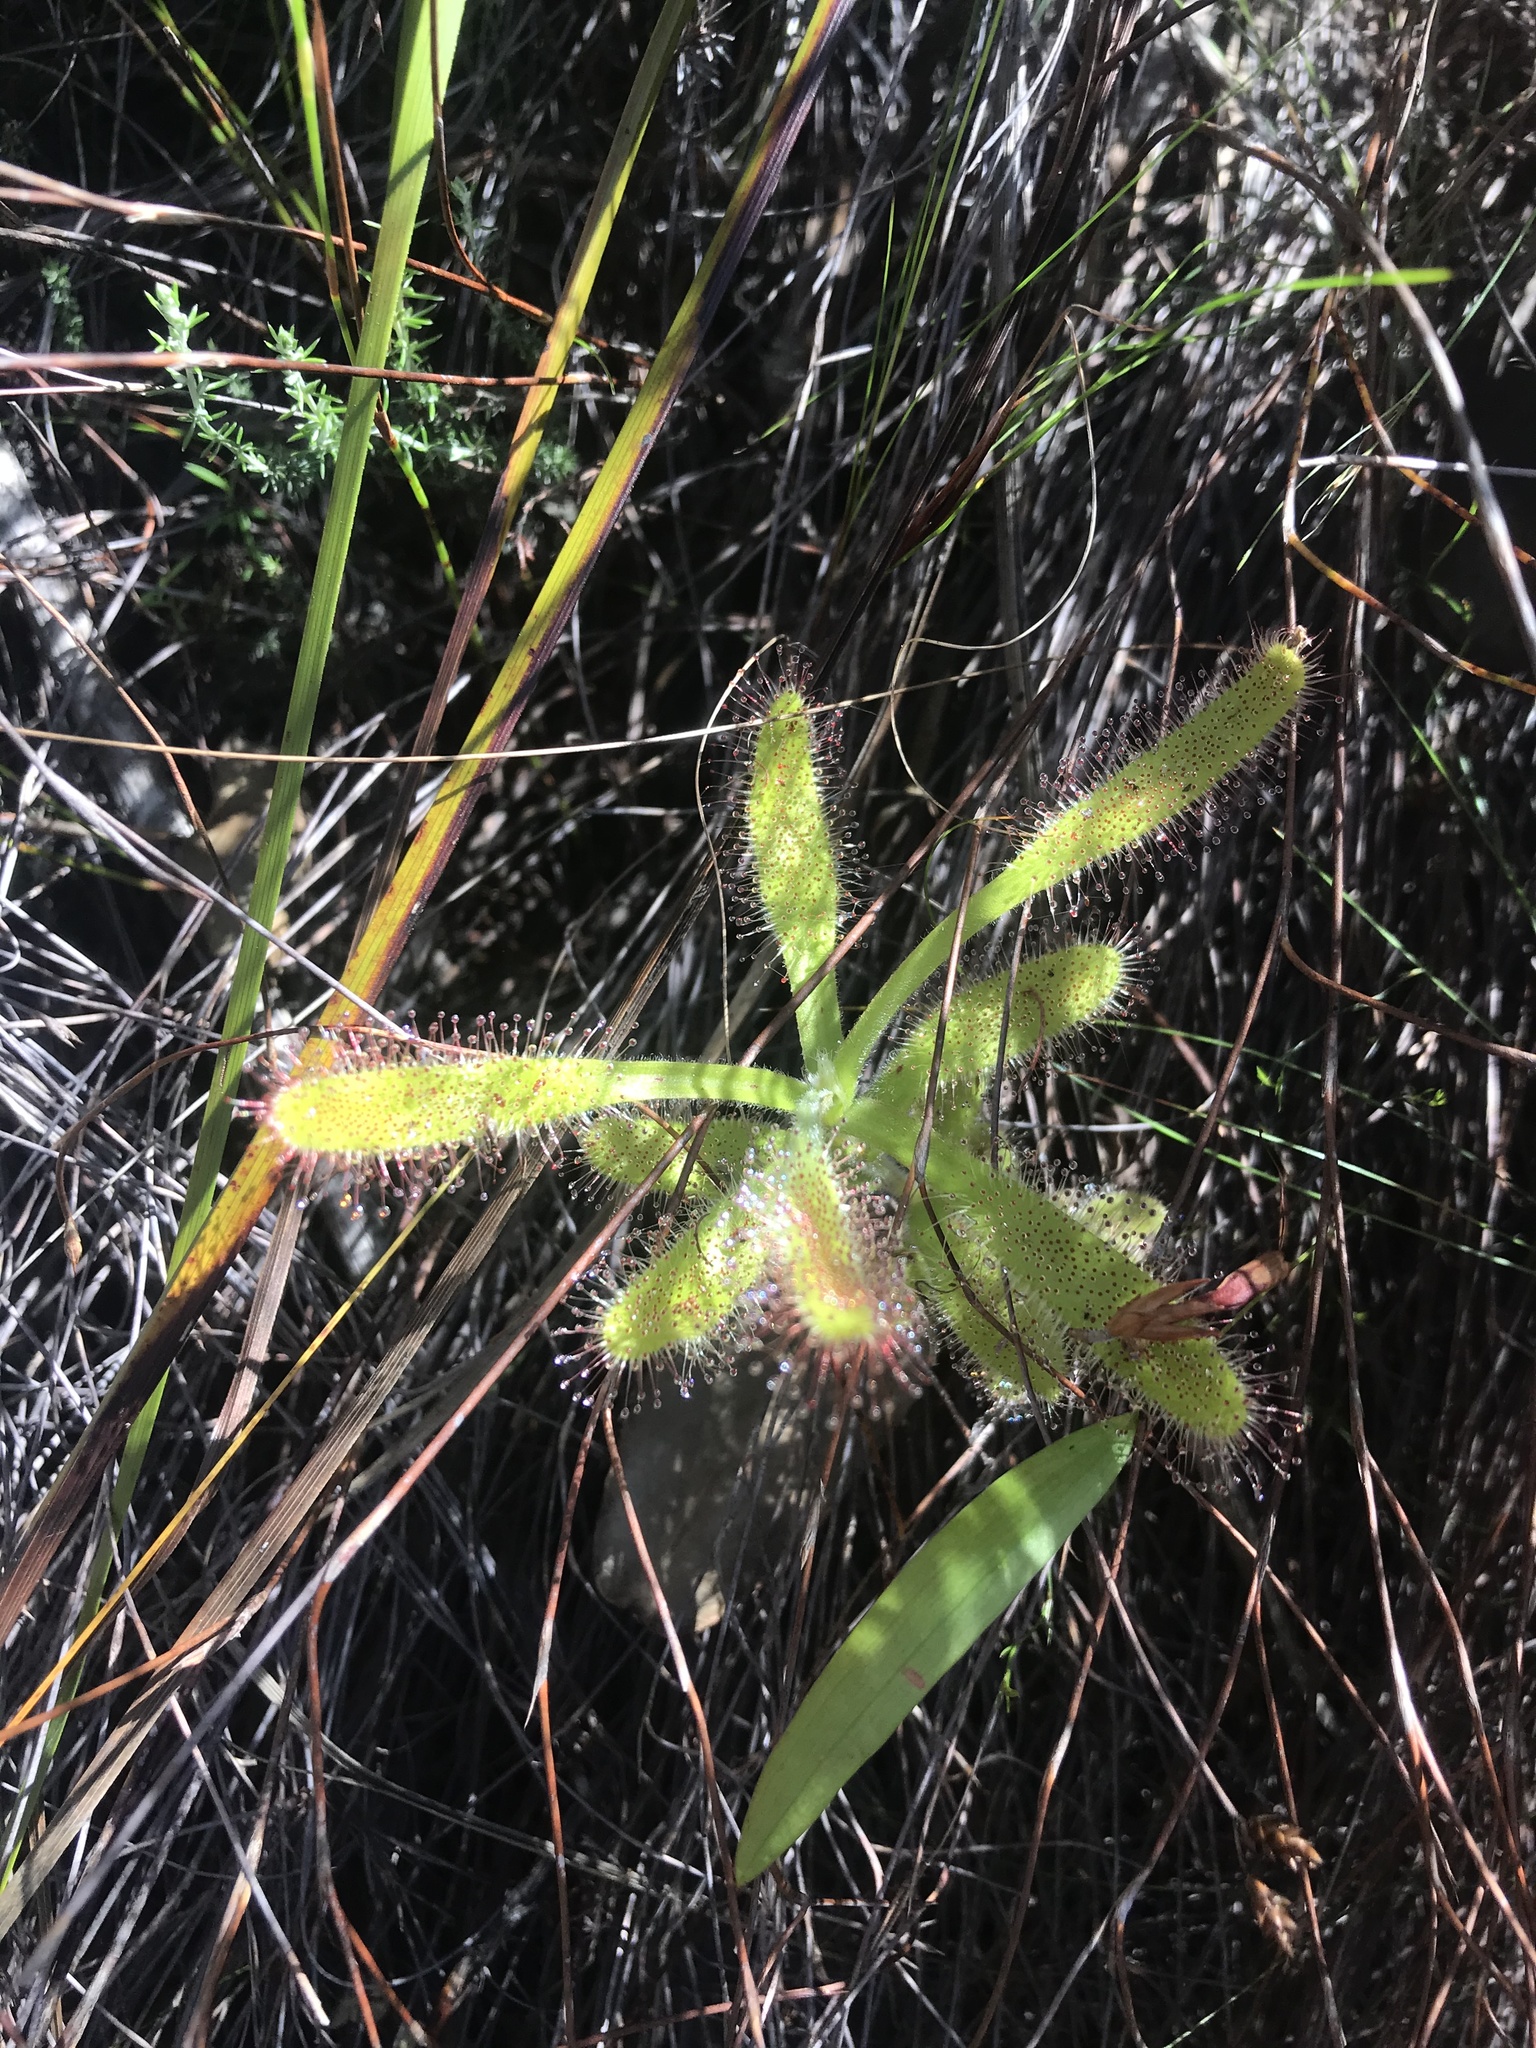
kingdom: Plantae
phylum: Tracheophyta
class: Magnoliopsida
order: Caryophyllales
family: Droseraceae
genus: Drosera
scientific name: Drosera hilaris
